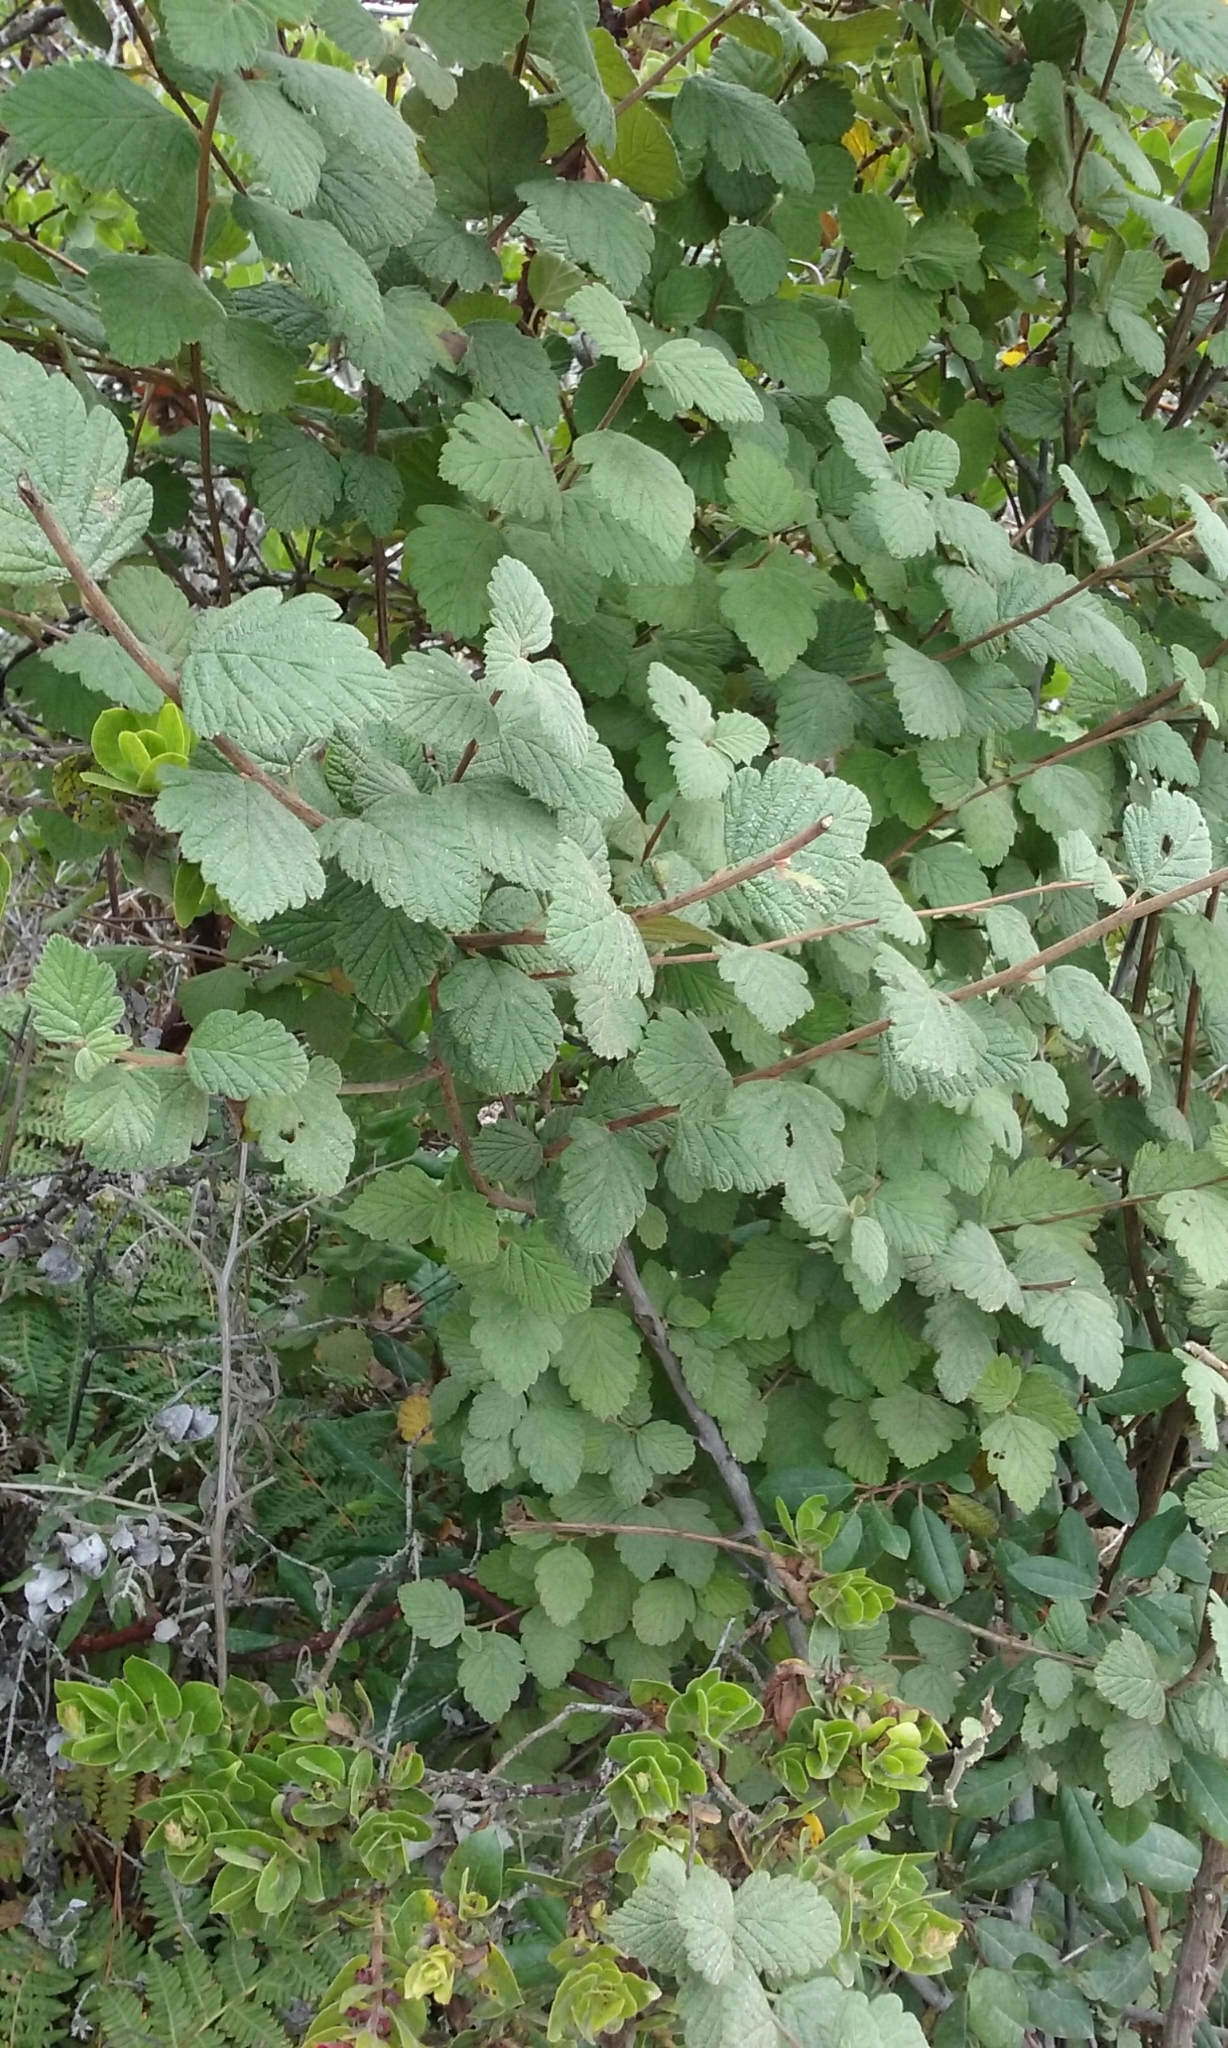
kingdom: Plantae
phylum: Tracheophyta
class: Magnoliopsida
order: Rosales
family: Rosaceae
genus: Holodiscus
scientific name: Holodiscus discolor
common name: Oceanspray
